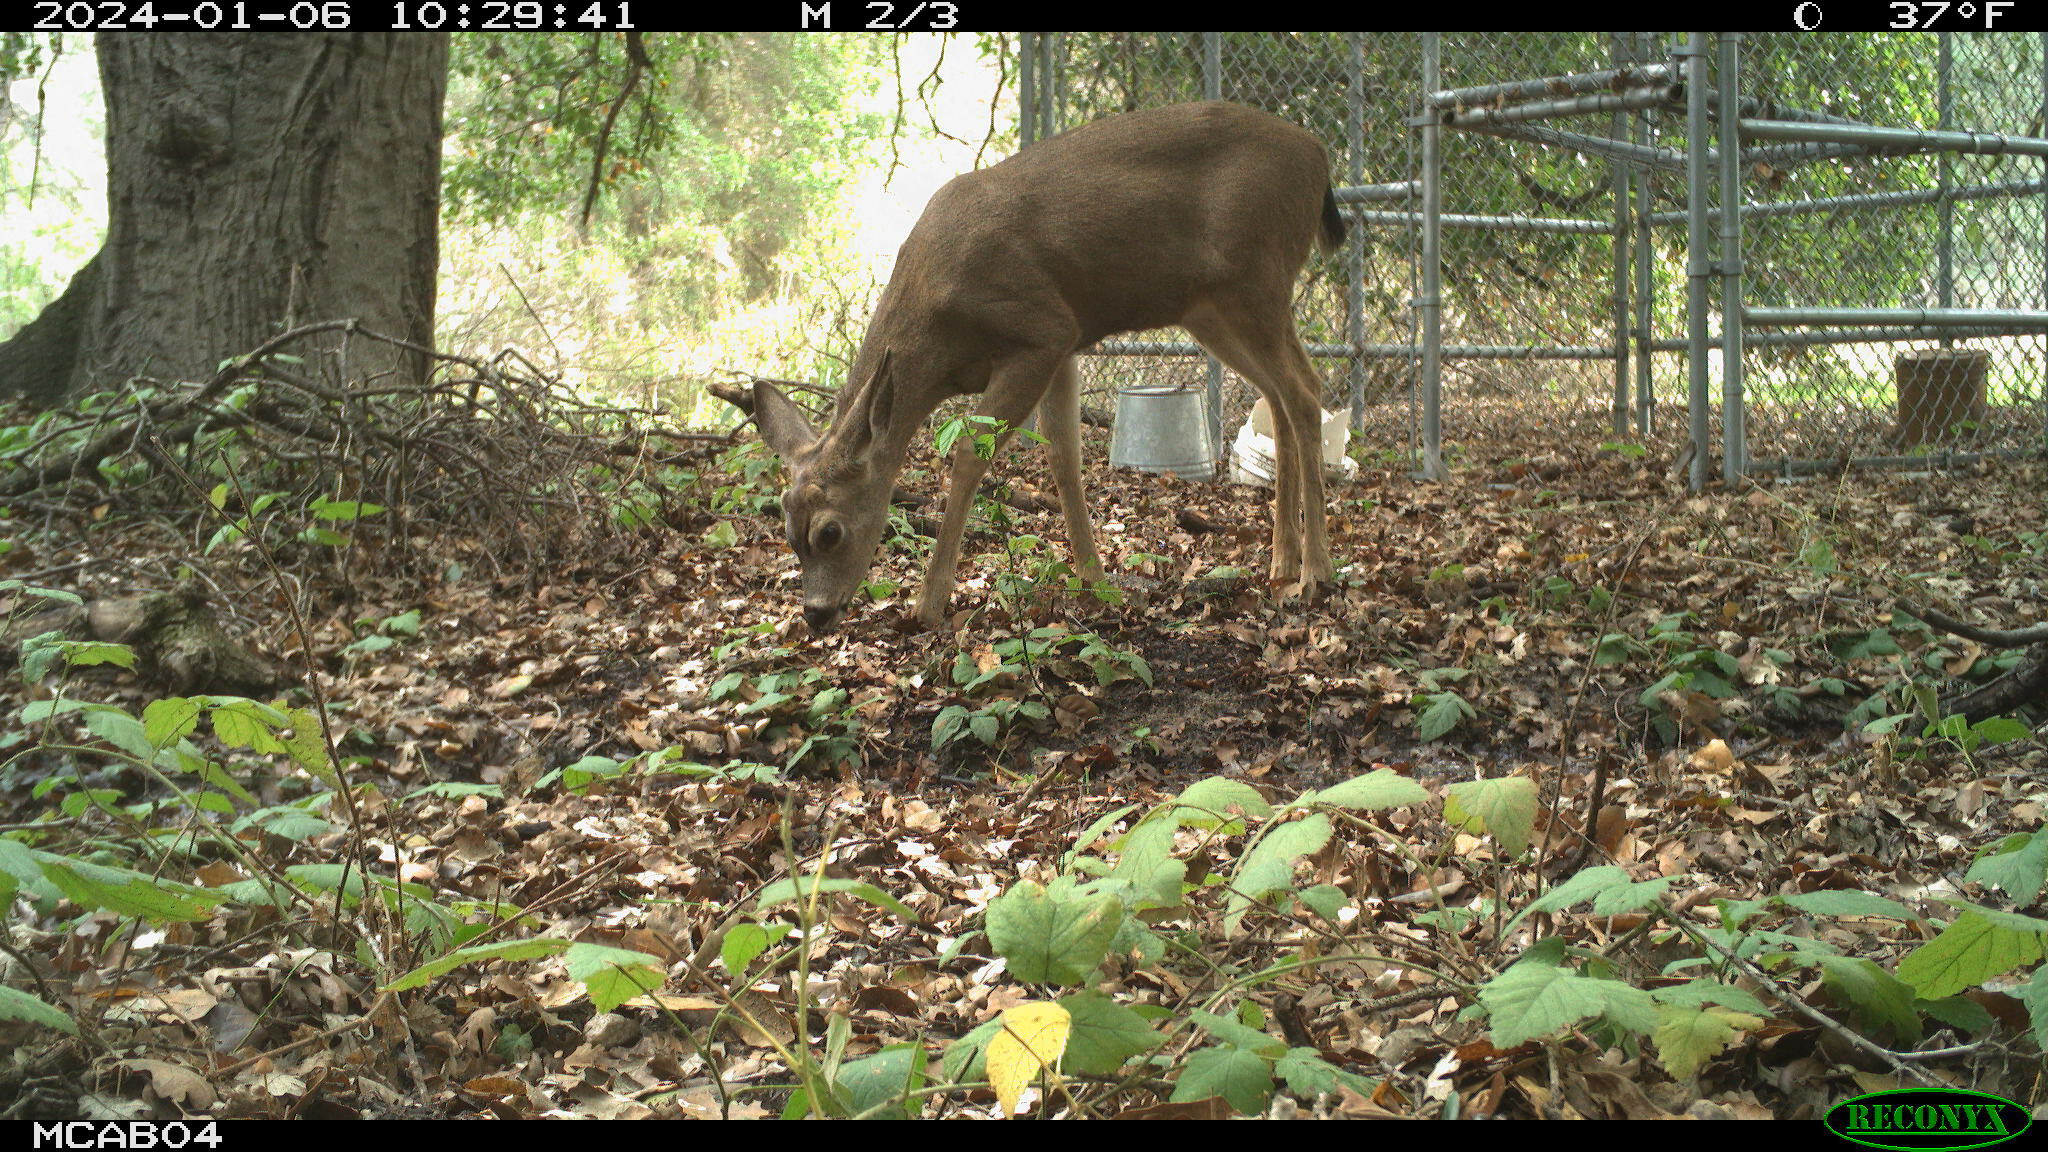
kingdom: Animalia
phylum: Chordata
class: Mammalia
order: Artiodactyla
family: Cervidae
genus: Odocoileus
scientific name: Odocoileus hemionus
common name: Mule deer
